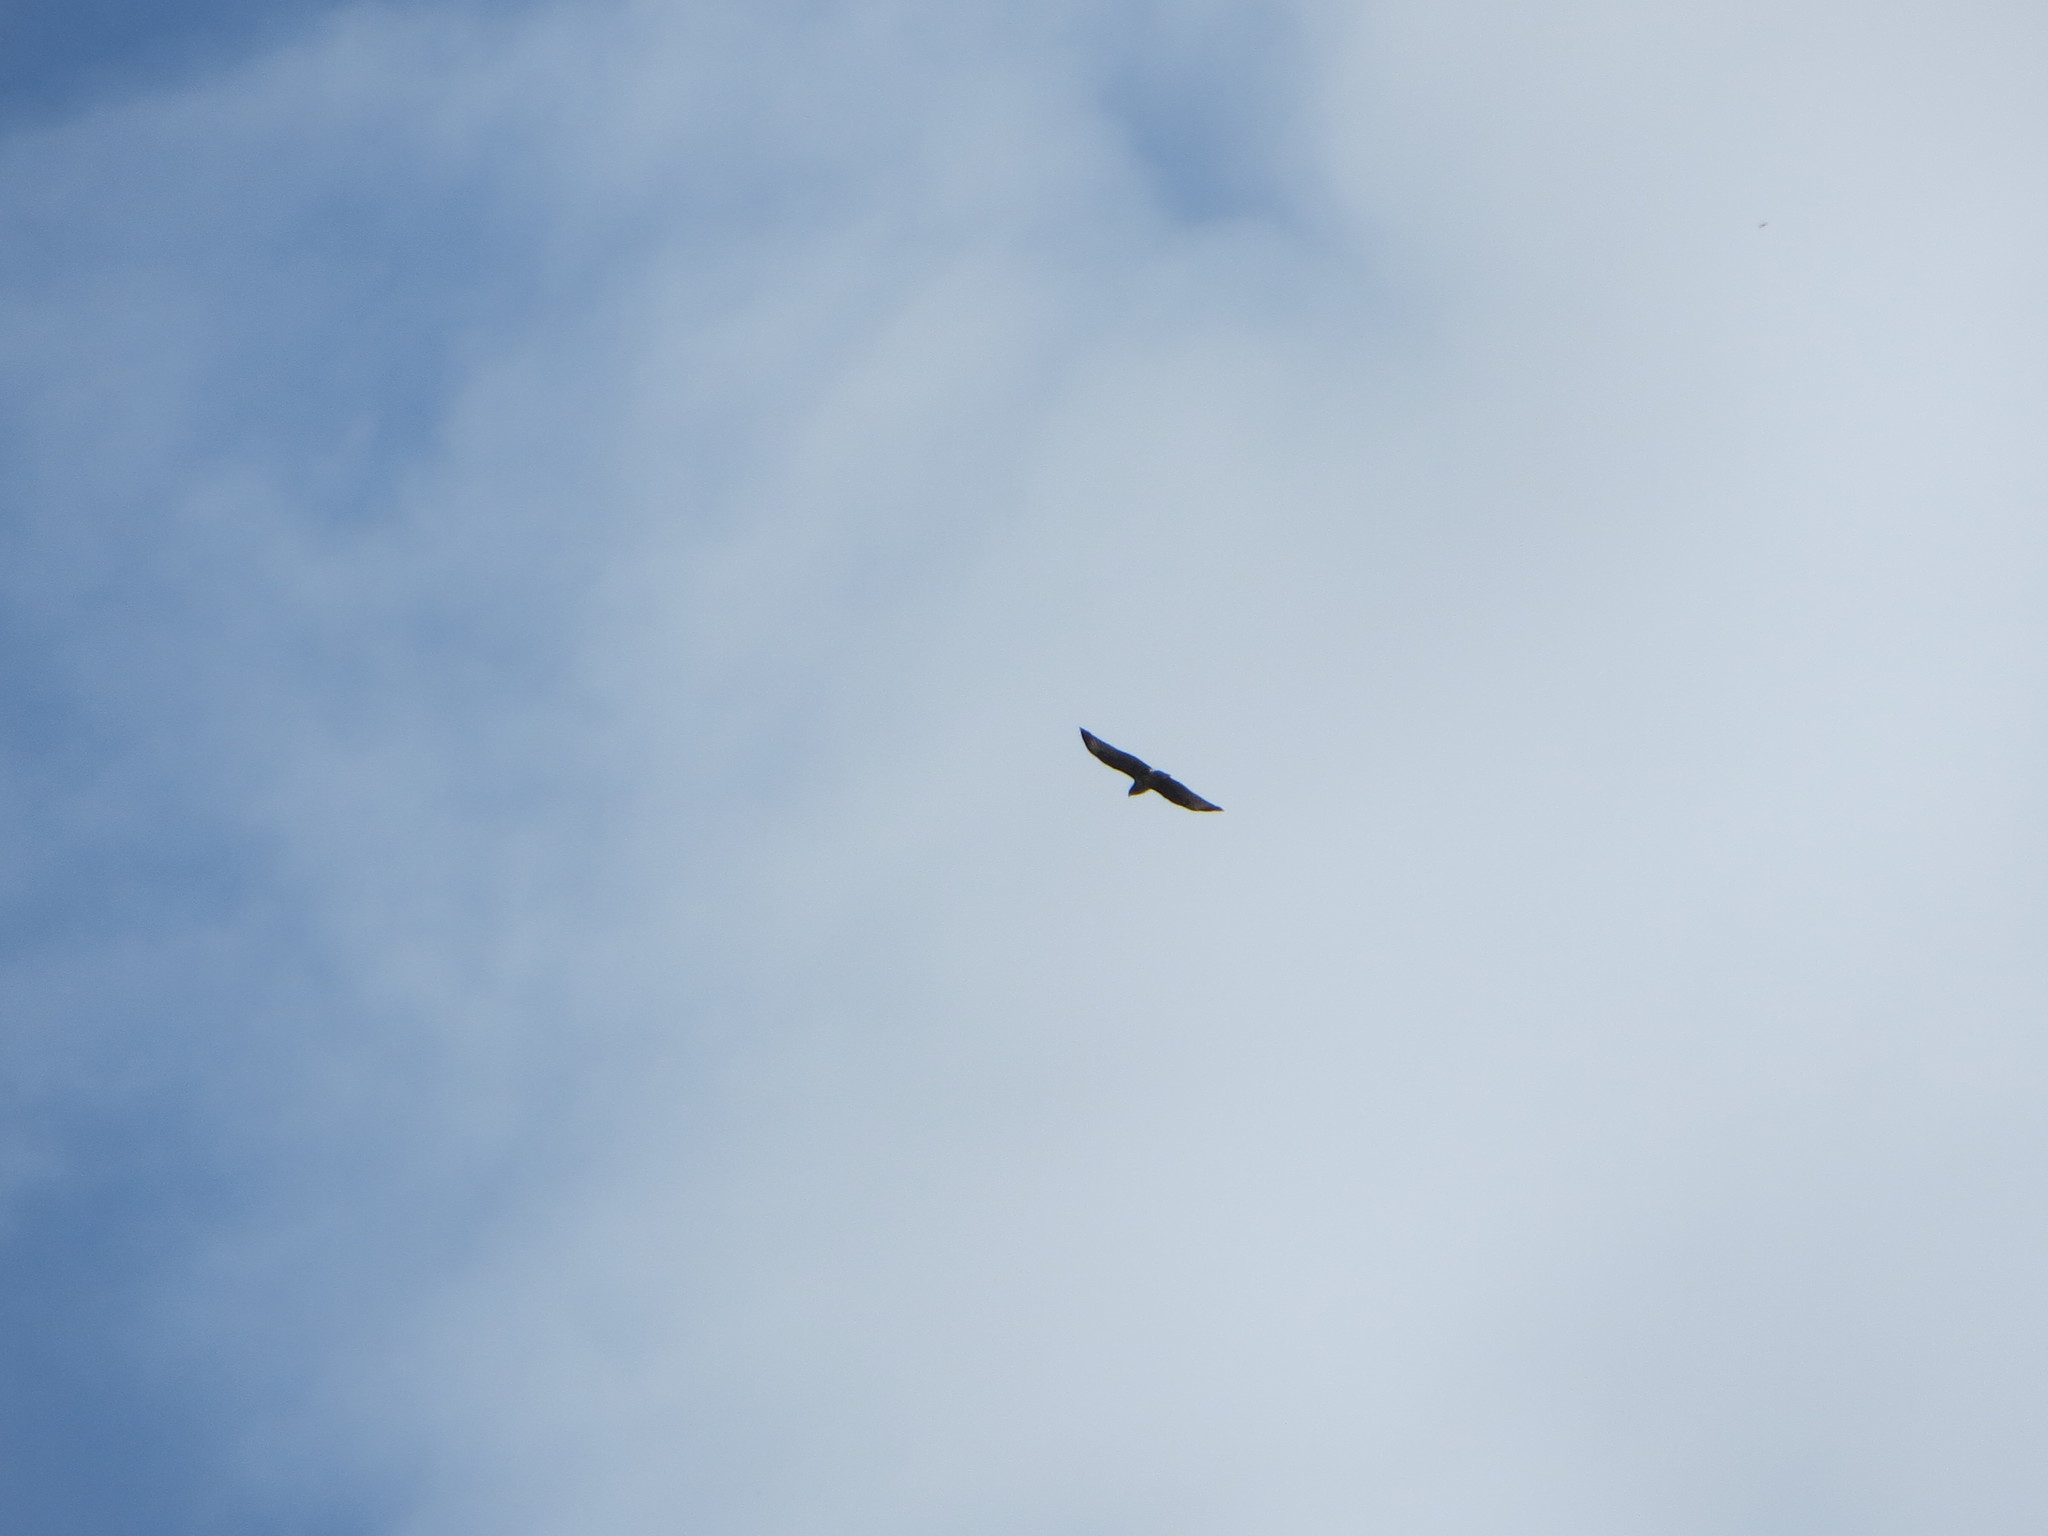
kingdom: Animalia
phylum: Chordata
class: Aves
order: Accipitriformes
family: Accipitridae
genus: Buteo
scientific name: Buteo buteo
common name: Common buzzard
